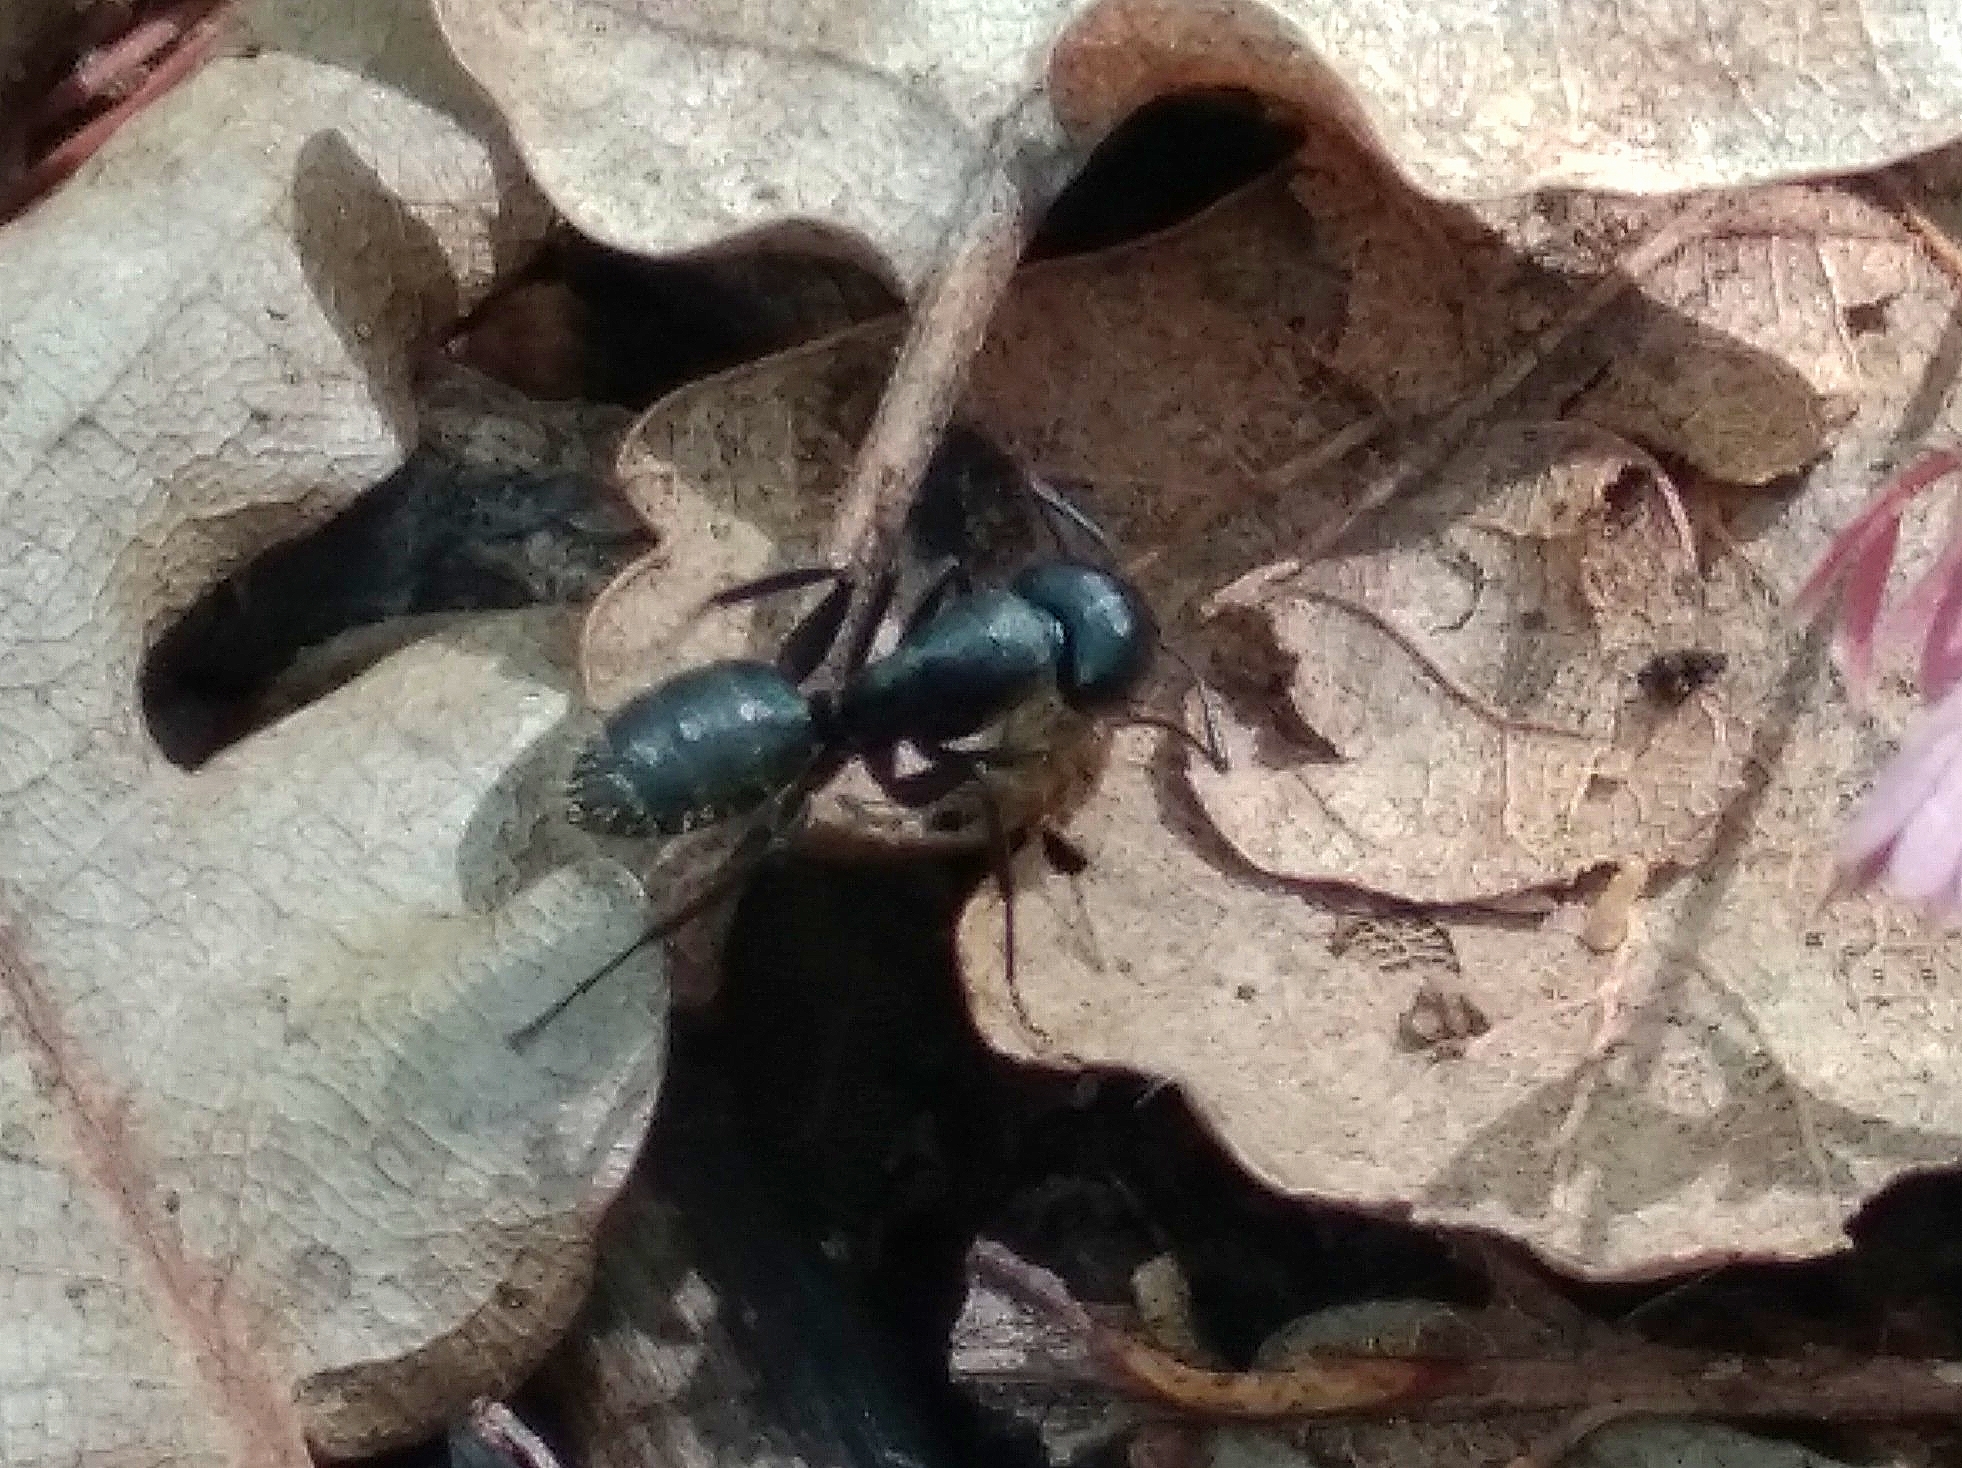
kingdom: Animalia
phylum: Arthropoda
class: Insecta
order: Hymenoptera
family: Formicidae
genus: Camponotus
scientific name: Camponotus vagus
